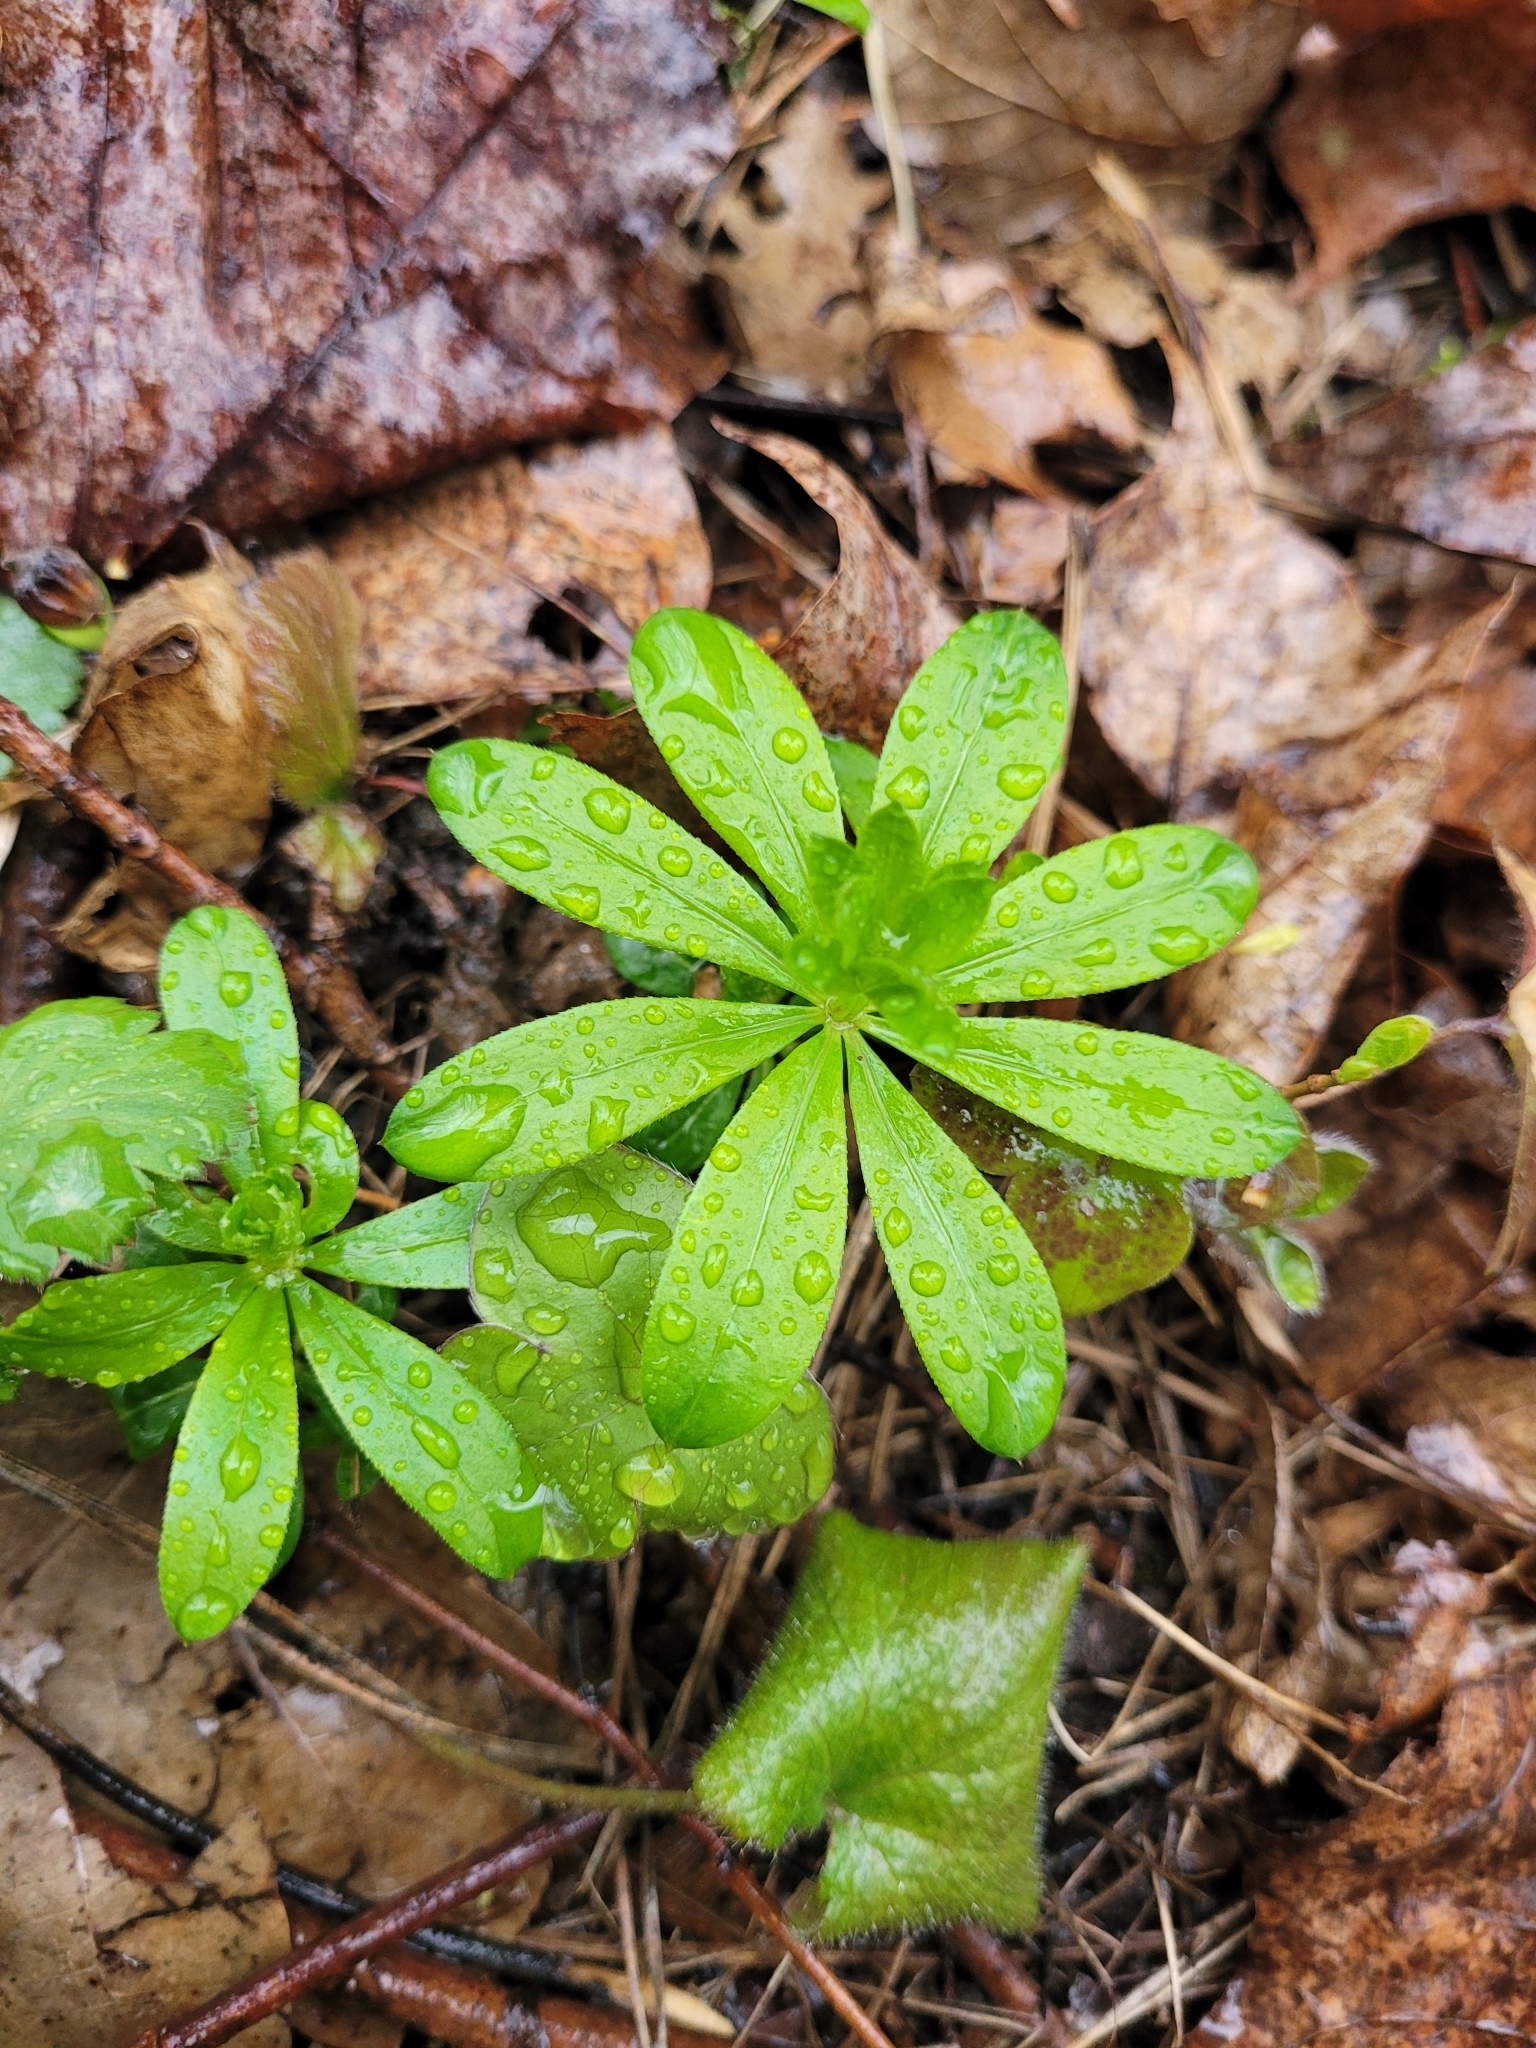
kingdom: Plantae
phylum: Tracheophyta
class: Magnoliopsida
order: Gentianales
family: Rubiaceae
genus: Galium
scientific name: Galium odoratum
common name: Sweet woodruff
